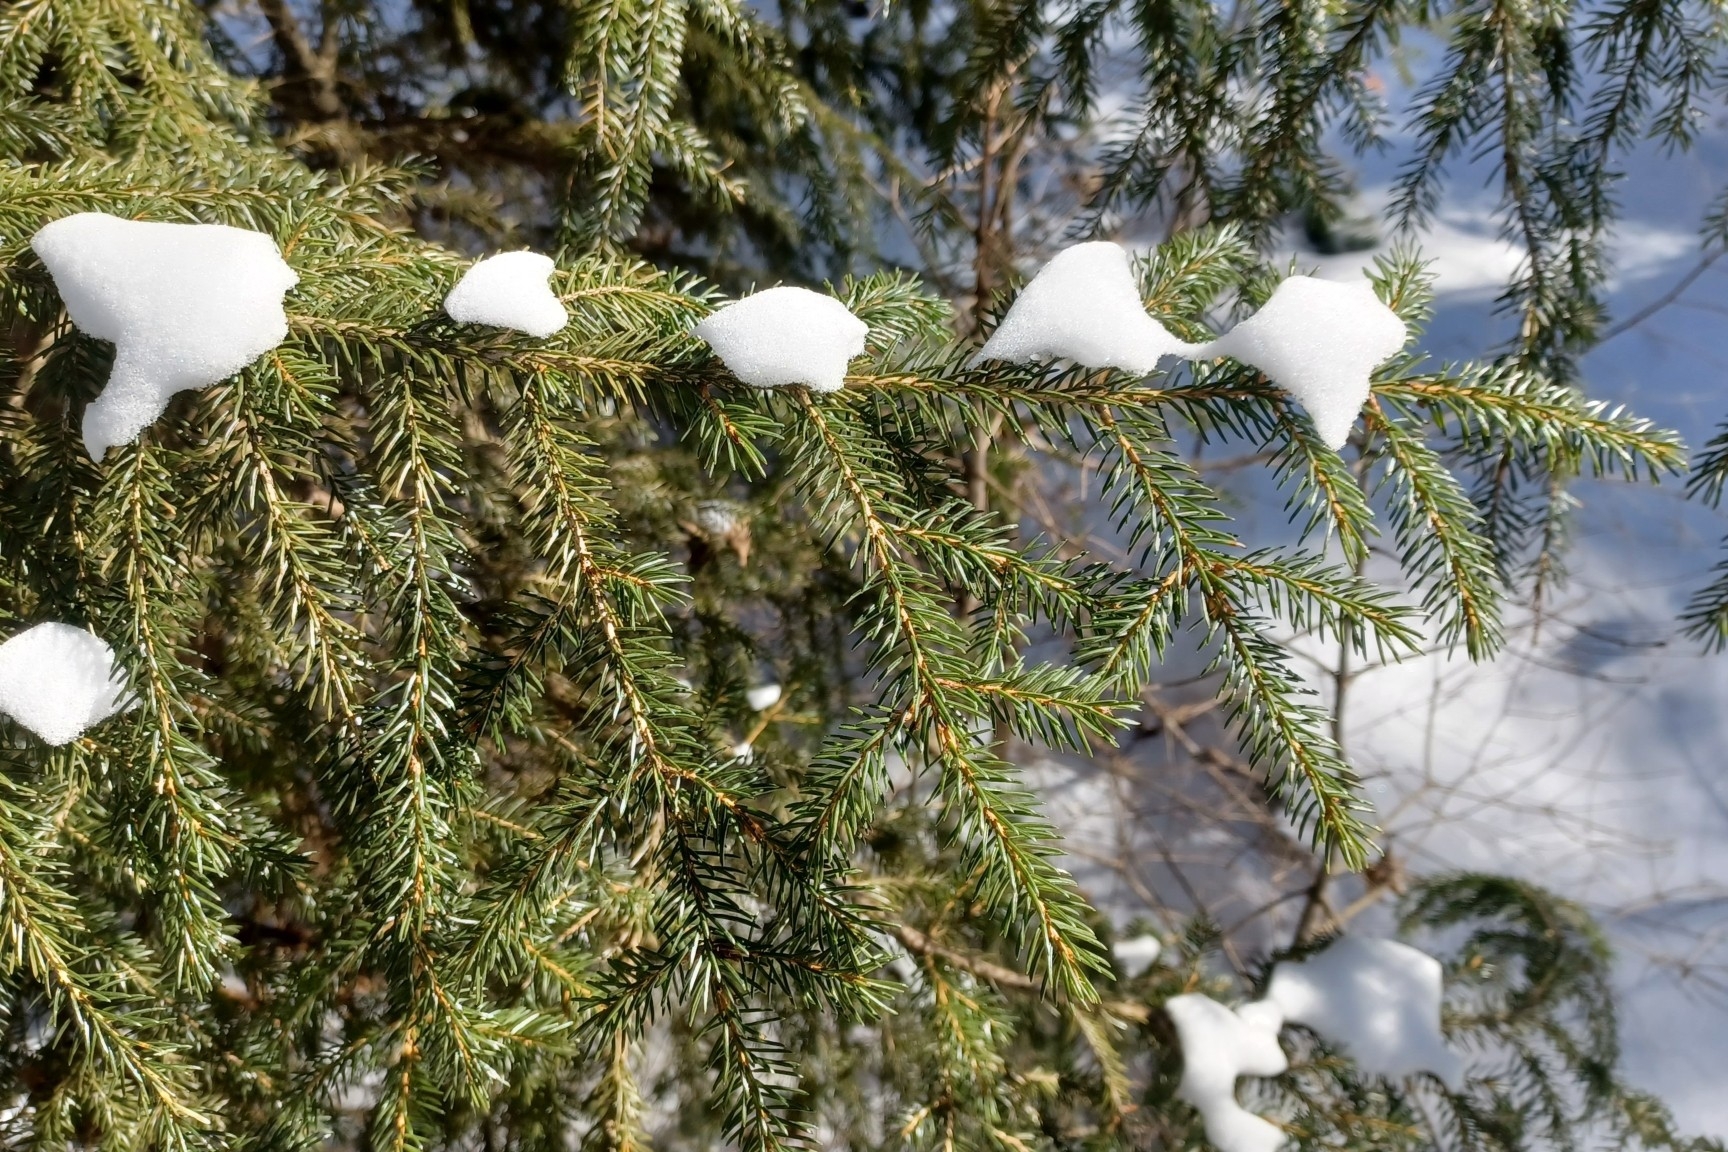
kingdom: Plantae
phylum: Tracheophyta
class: Pinopsida
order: Pinales
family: Pinaceae
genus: Picea
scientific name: Picea rubens
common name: Red spruce
